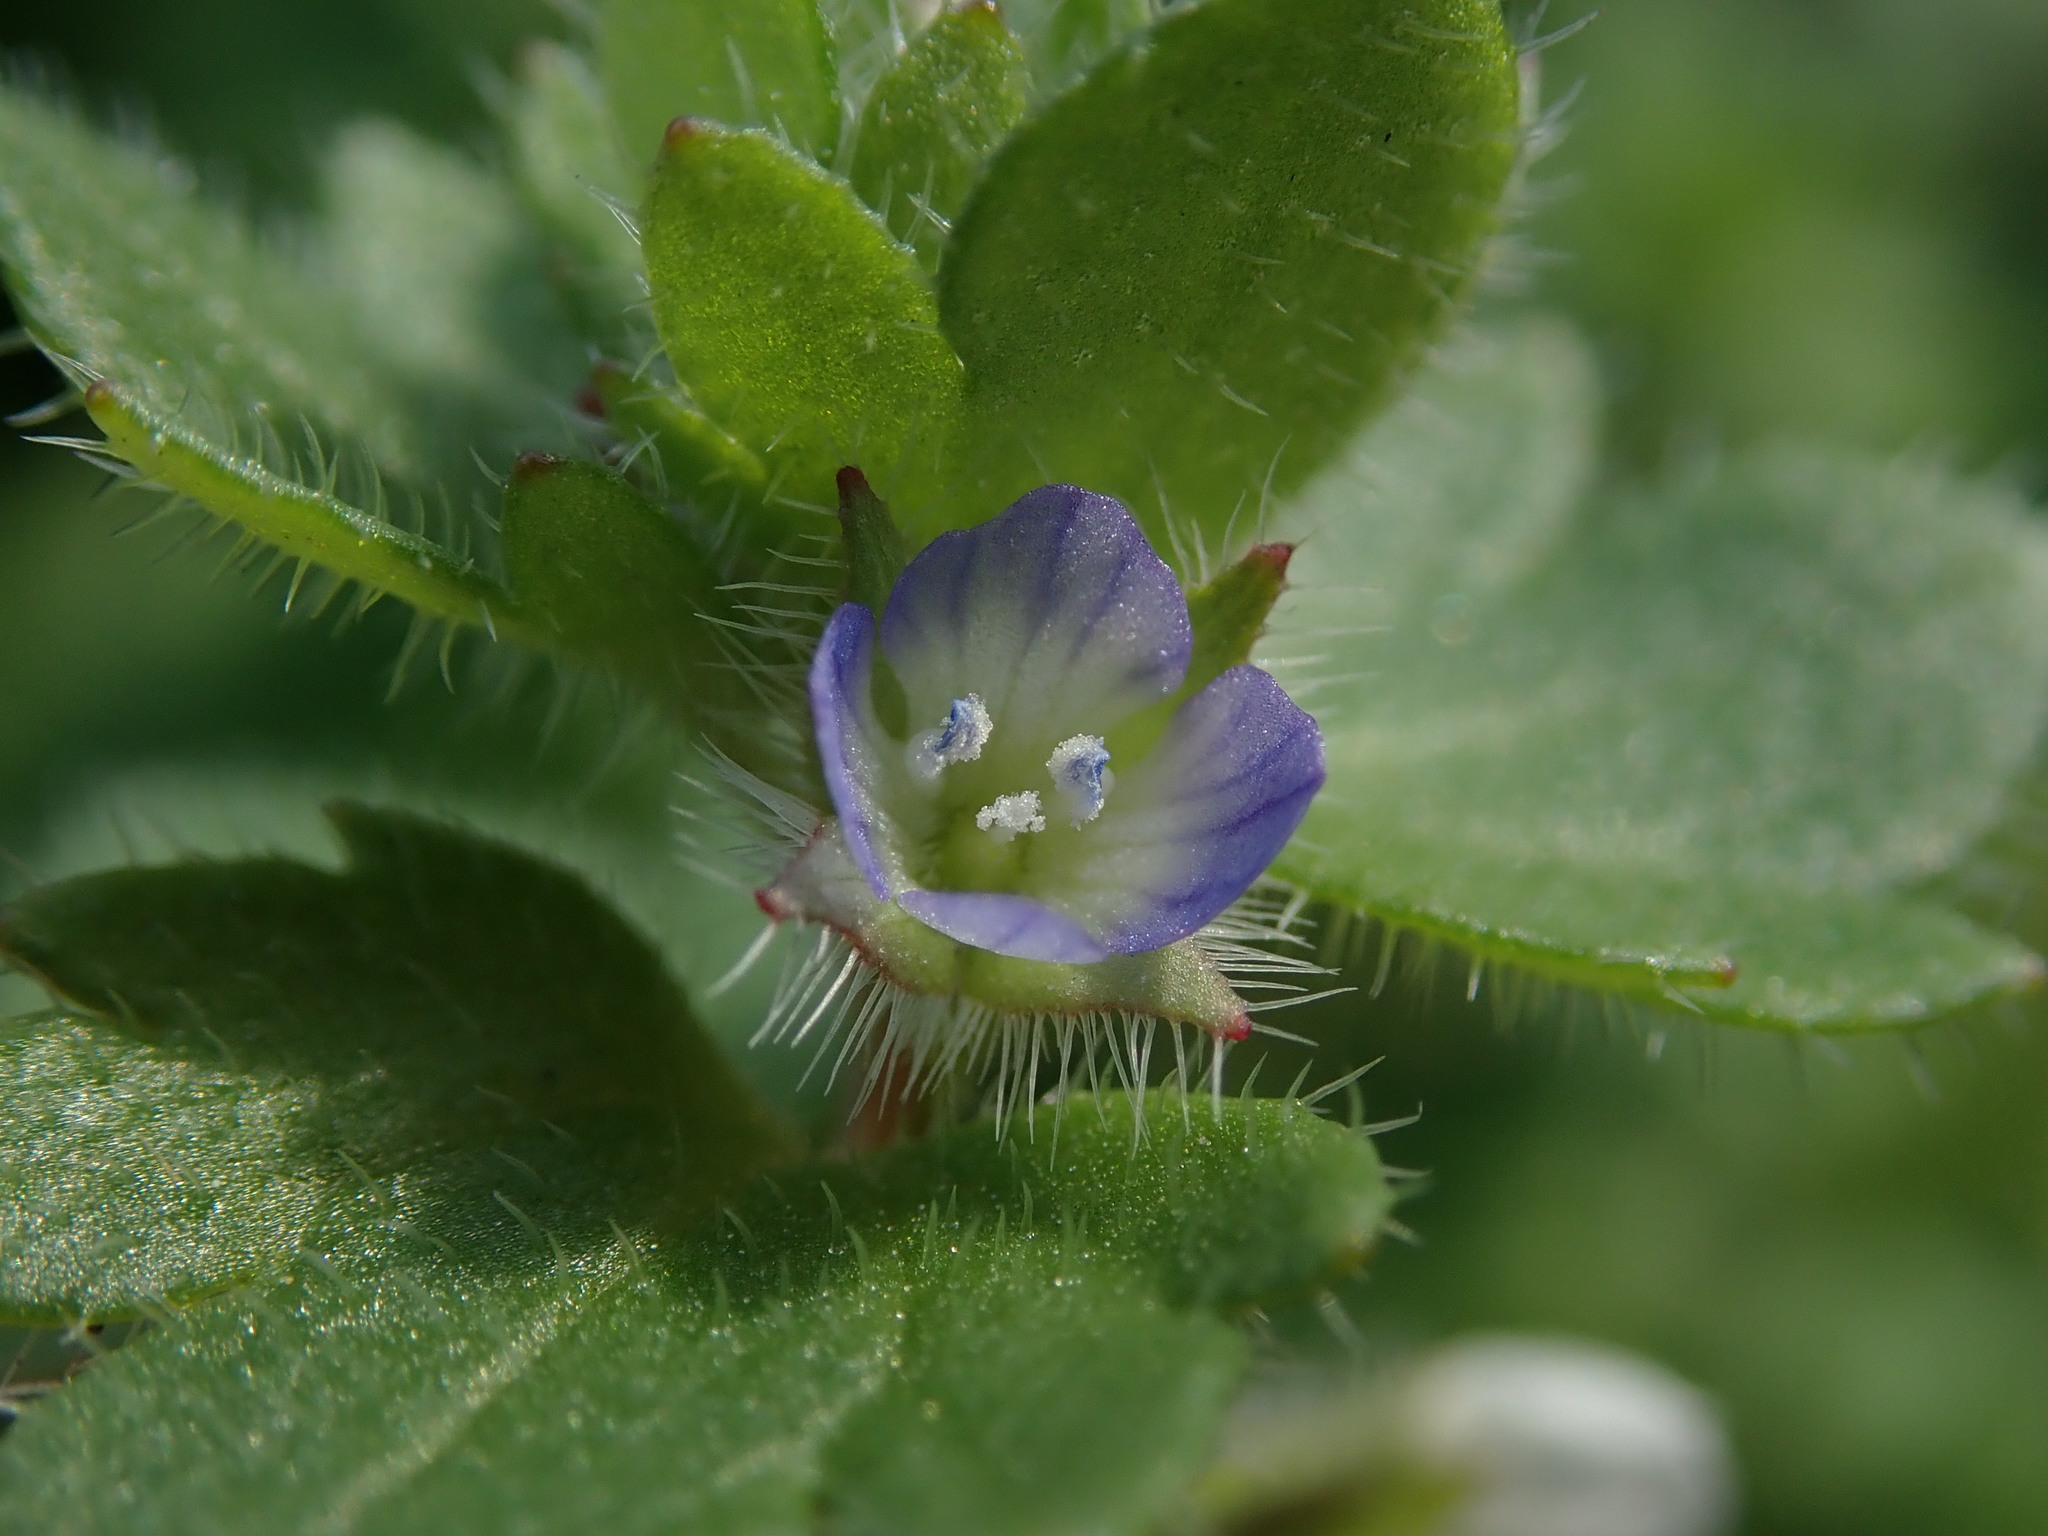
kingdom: Plantae
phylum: Tracheophyta
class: Magnoliopsida
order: Lamiales
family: Plantaginaceae
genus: Veronica
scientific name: Veronica hederifolia
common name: Ivy-leaved speedwell
